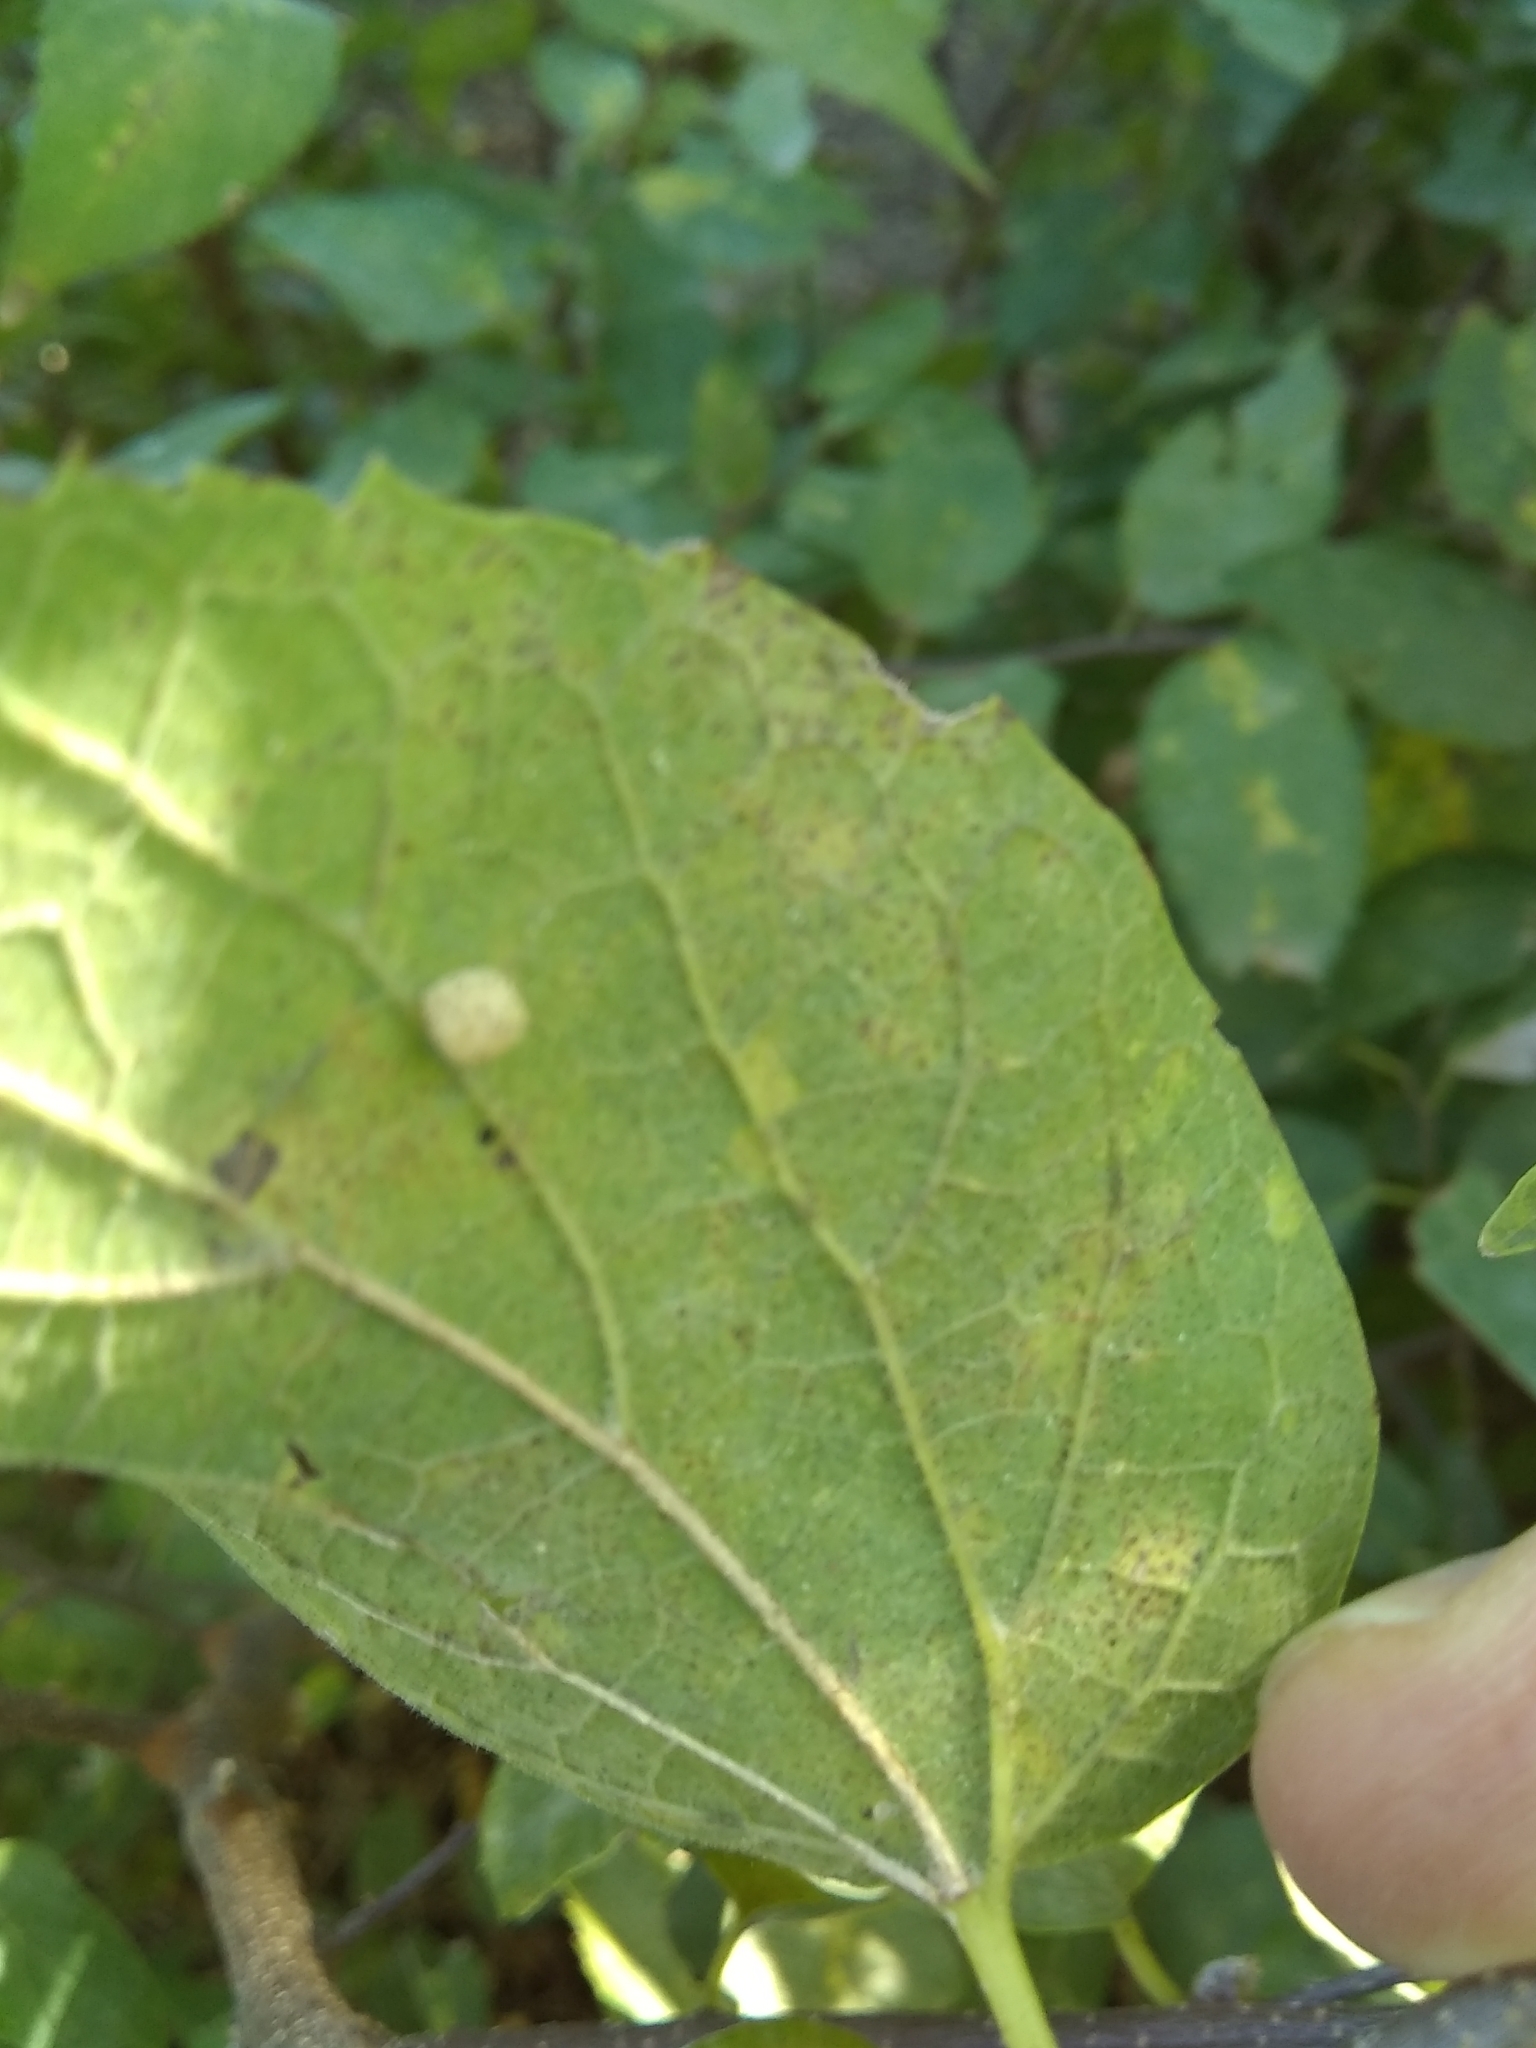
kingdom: Animalia
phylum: Arthropoda
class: Insecta
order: Diptera
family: Cecidomyiidae
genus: Celticecis
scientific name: Celticecis globosa
